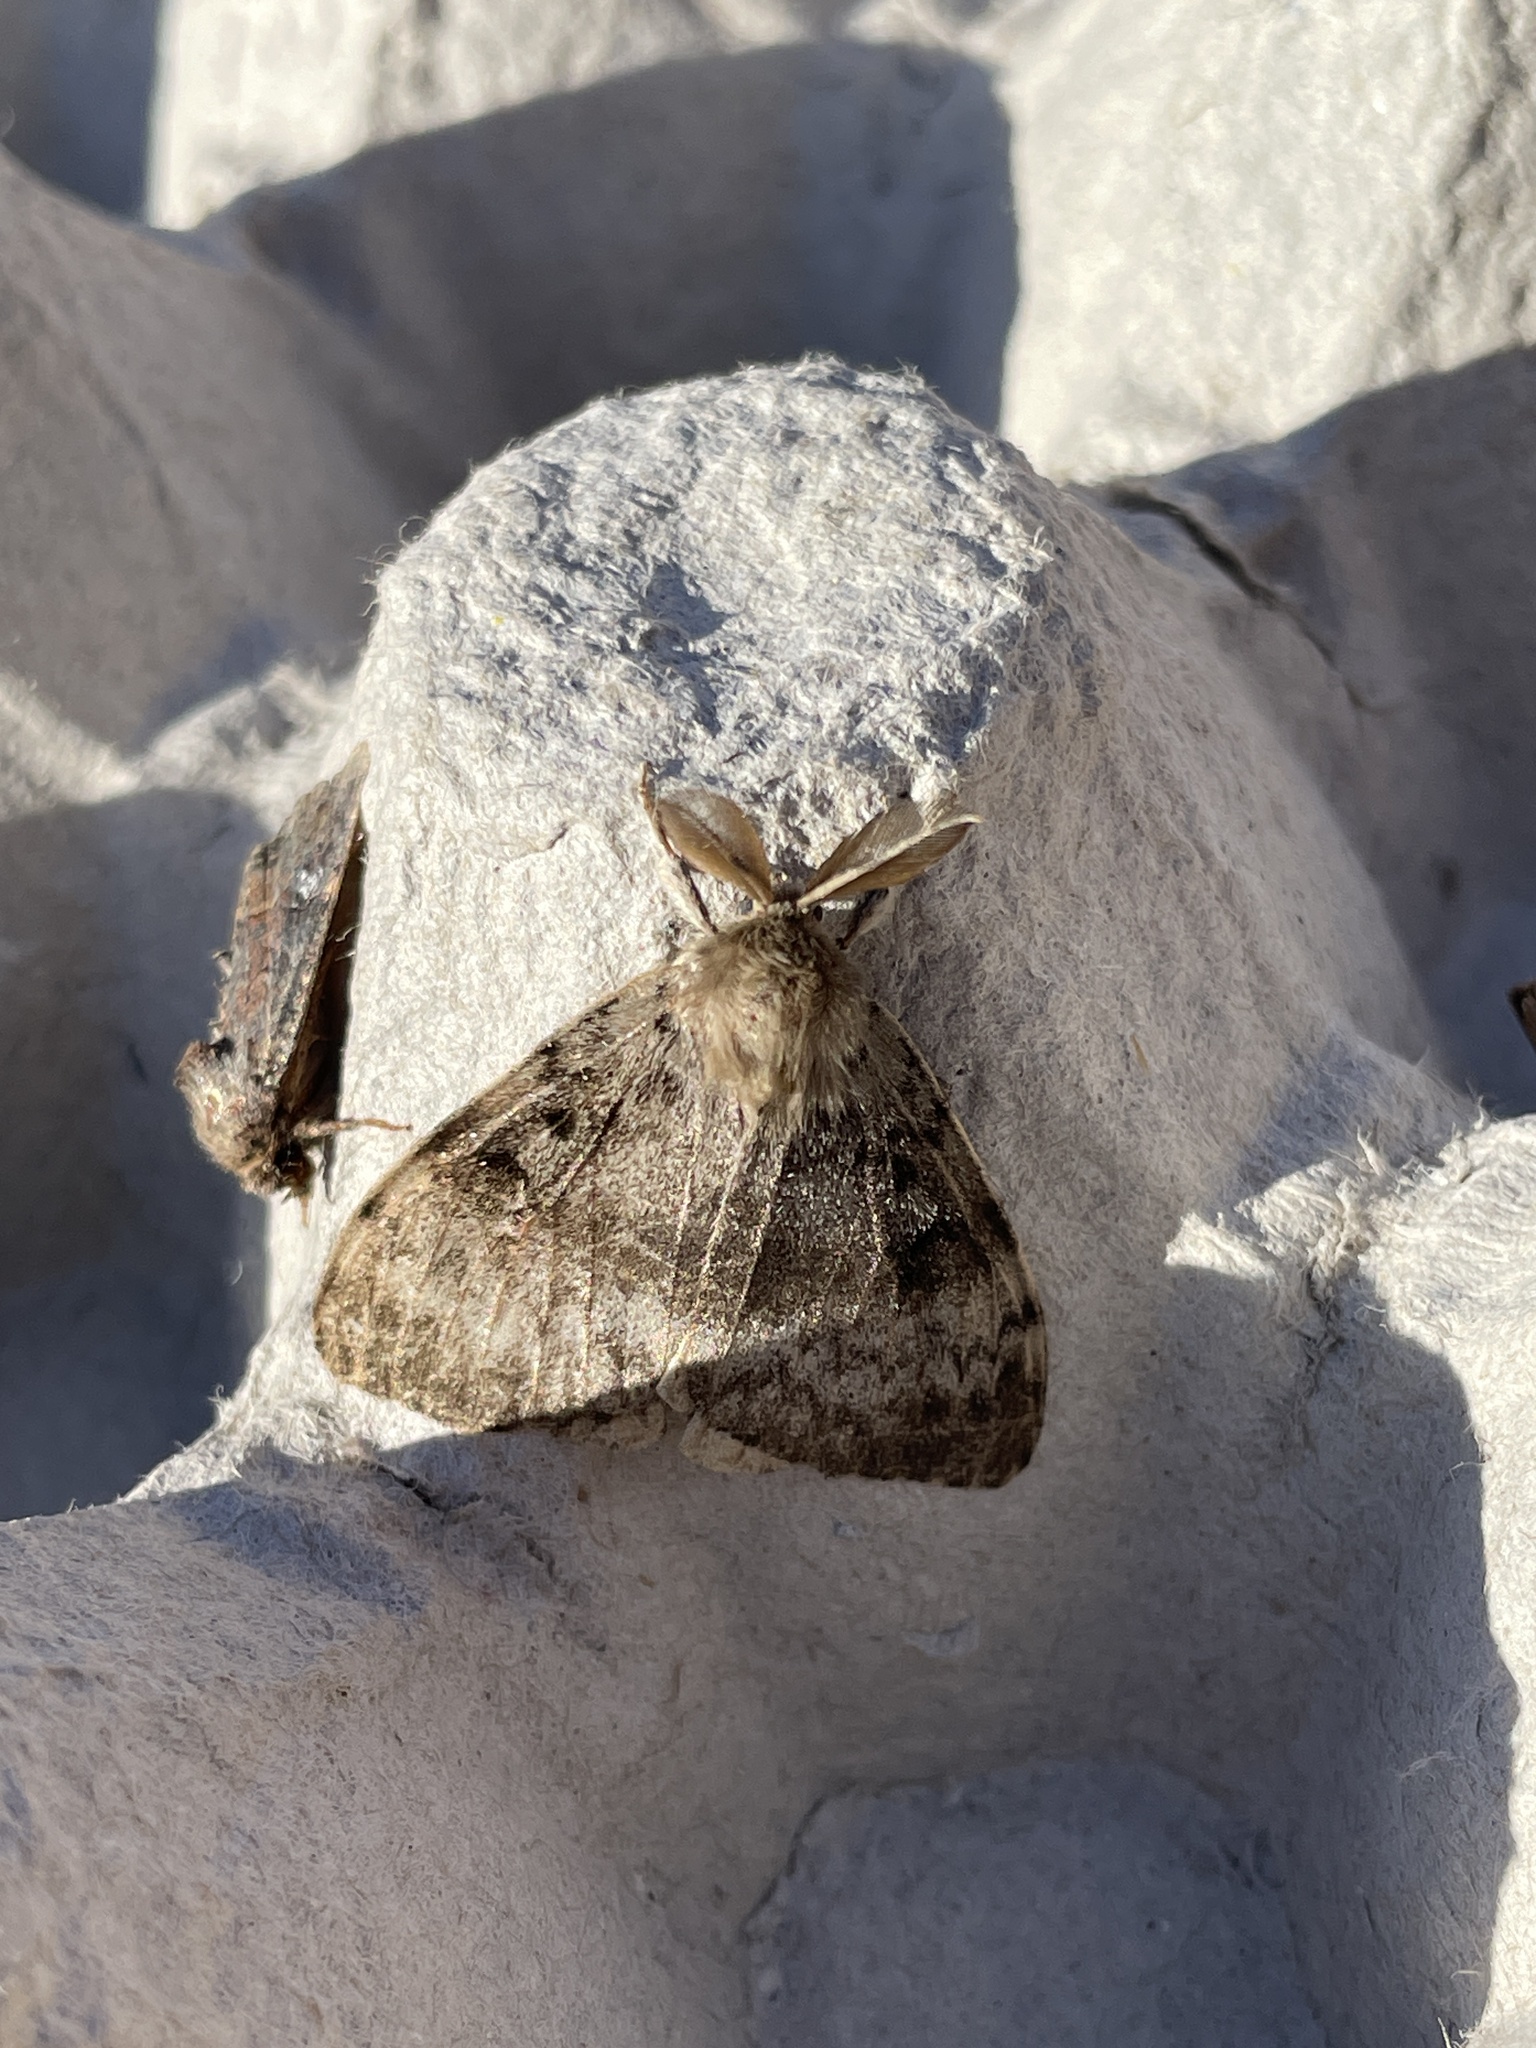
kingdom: Animalia
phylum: Arthropoda
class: Insecta
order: Lepidoptera
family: Erebidae
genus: Lymantria
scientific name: Lymantria dispar
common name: Gypsy moth
